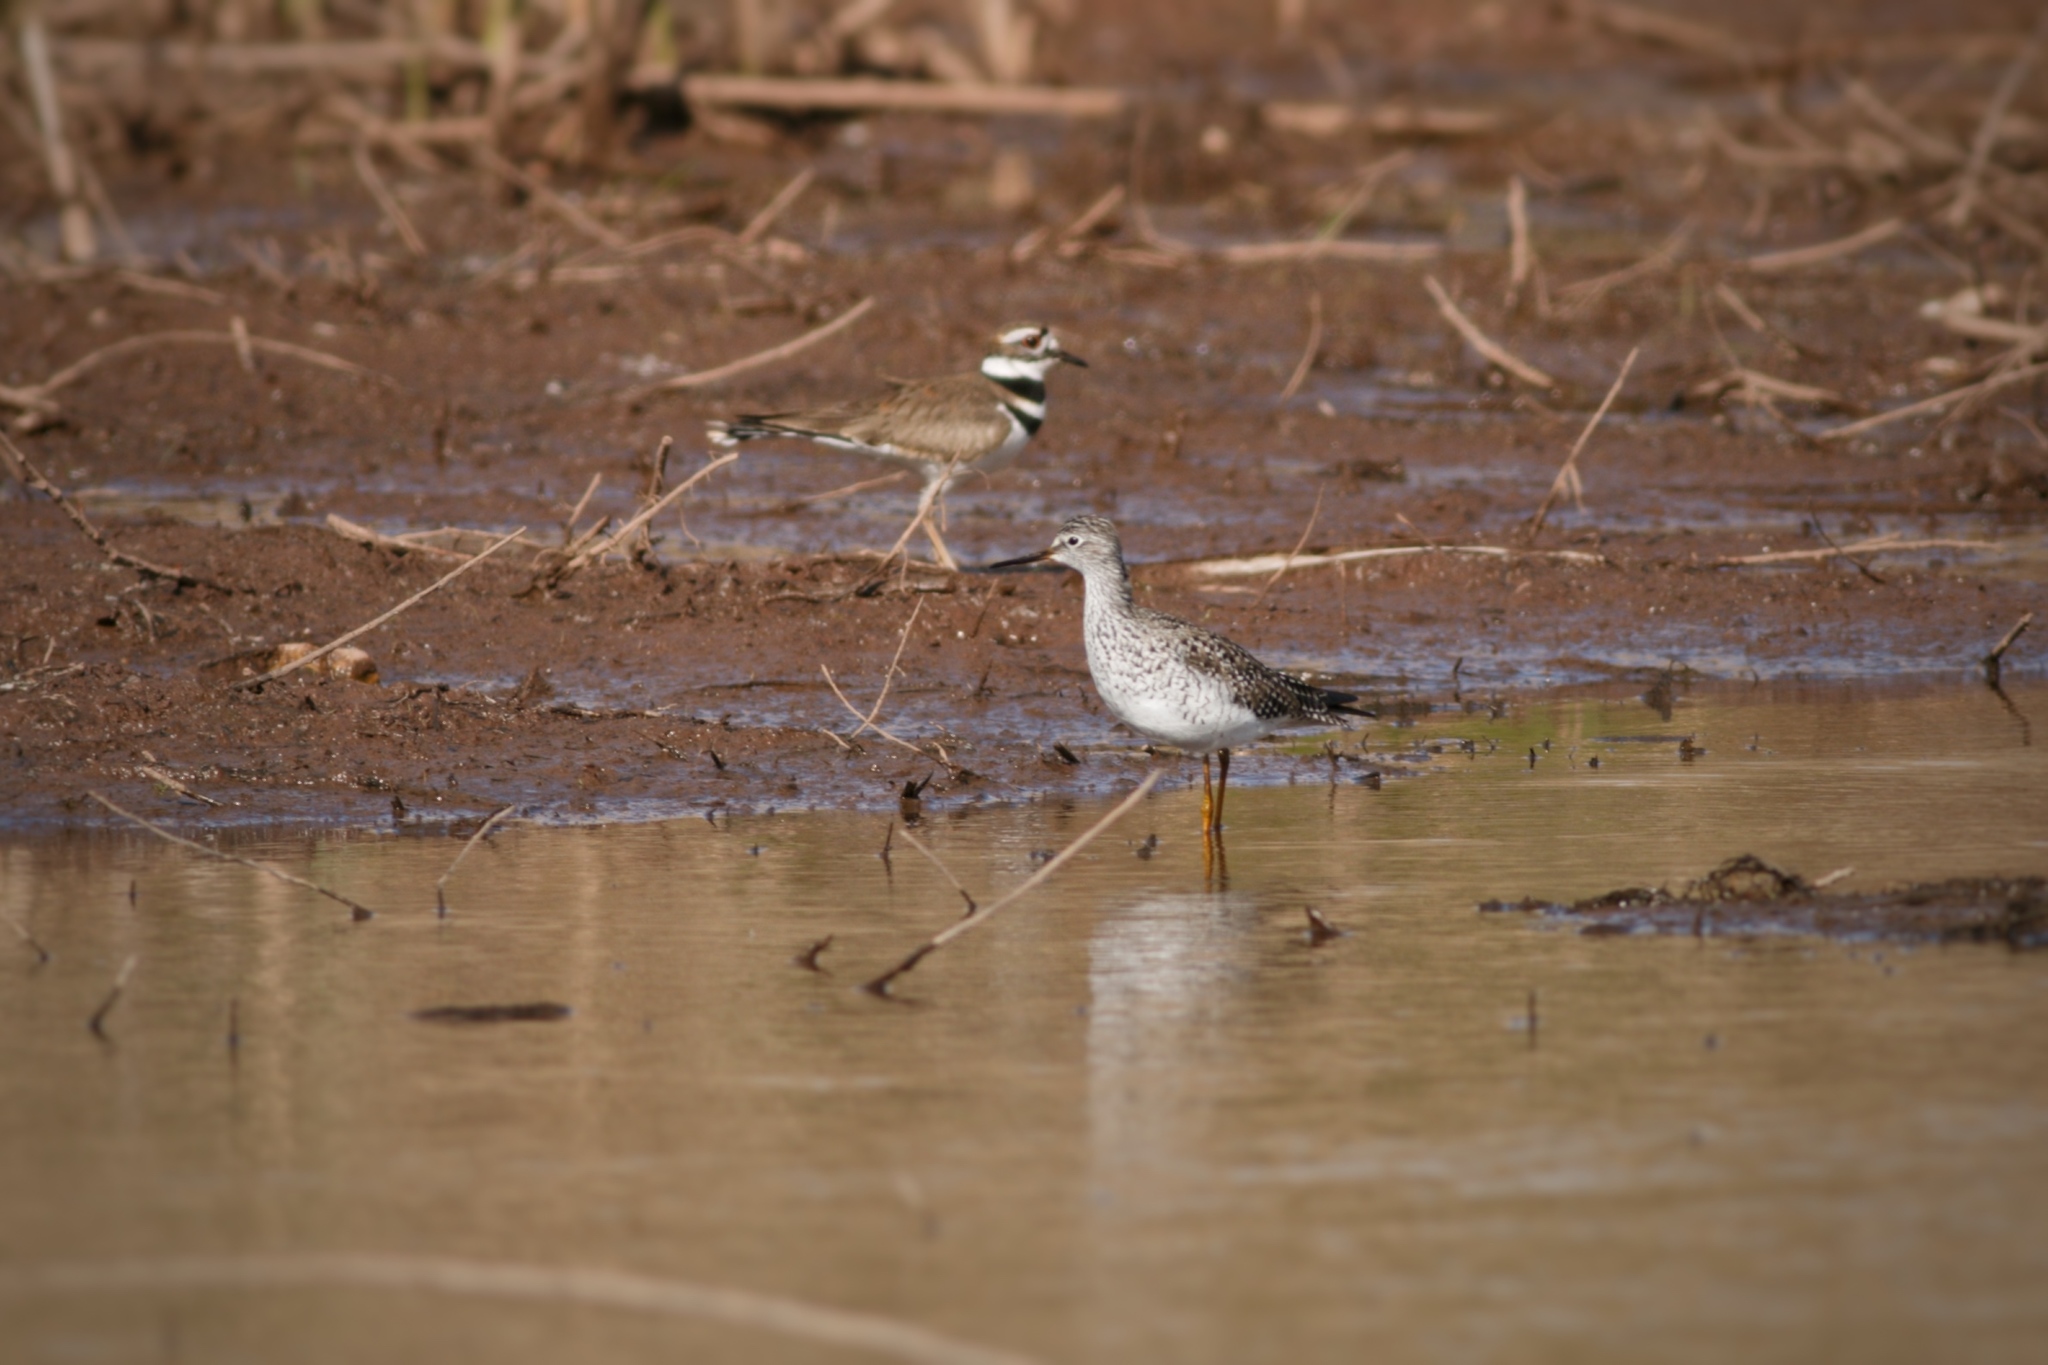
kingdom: Animalia
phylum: Chordata
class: Aves
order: Charadriiformes
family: Scolopacidae
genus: Tringa
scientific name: Tringa flavipes
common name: Lesser yellowlegs
